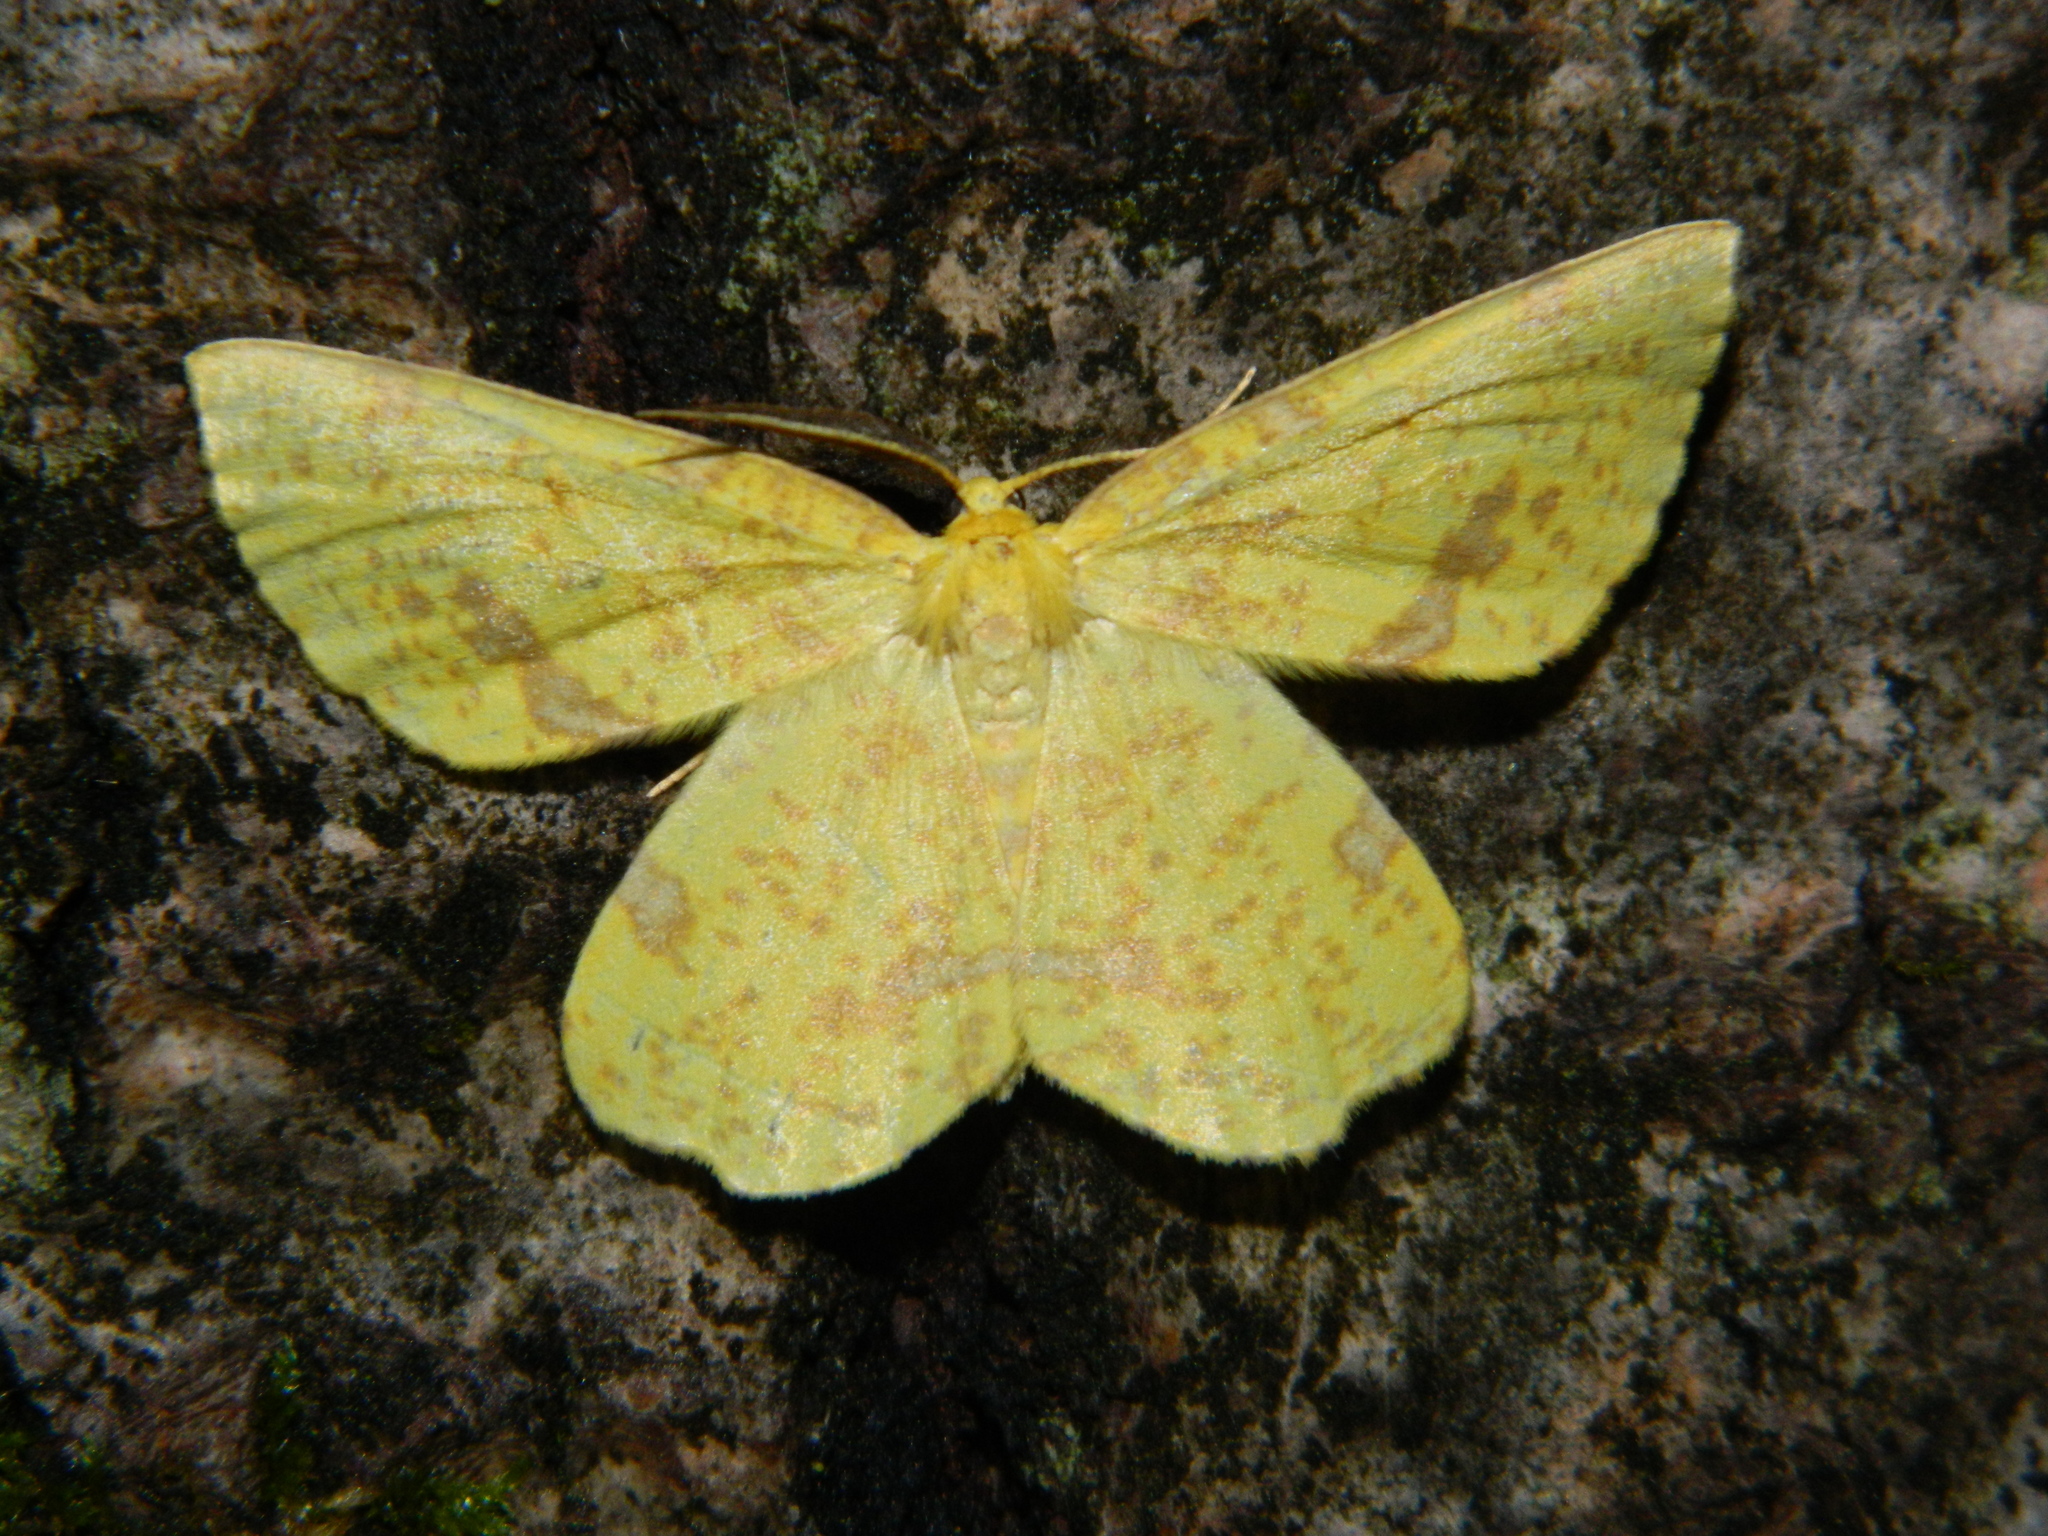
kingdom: Animalia
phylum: Arthropoda
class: Insecta
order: Lepidoptera
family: Geometridae
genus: Xanthotype
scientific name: Xanthotype
